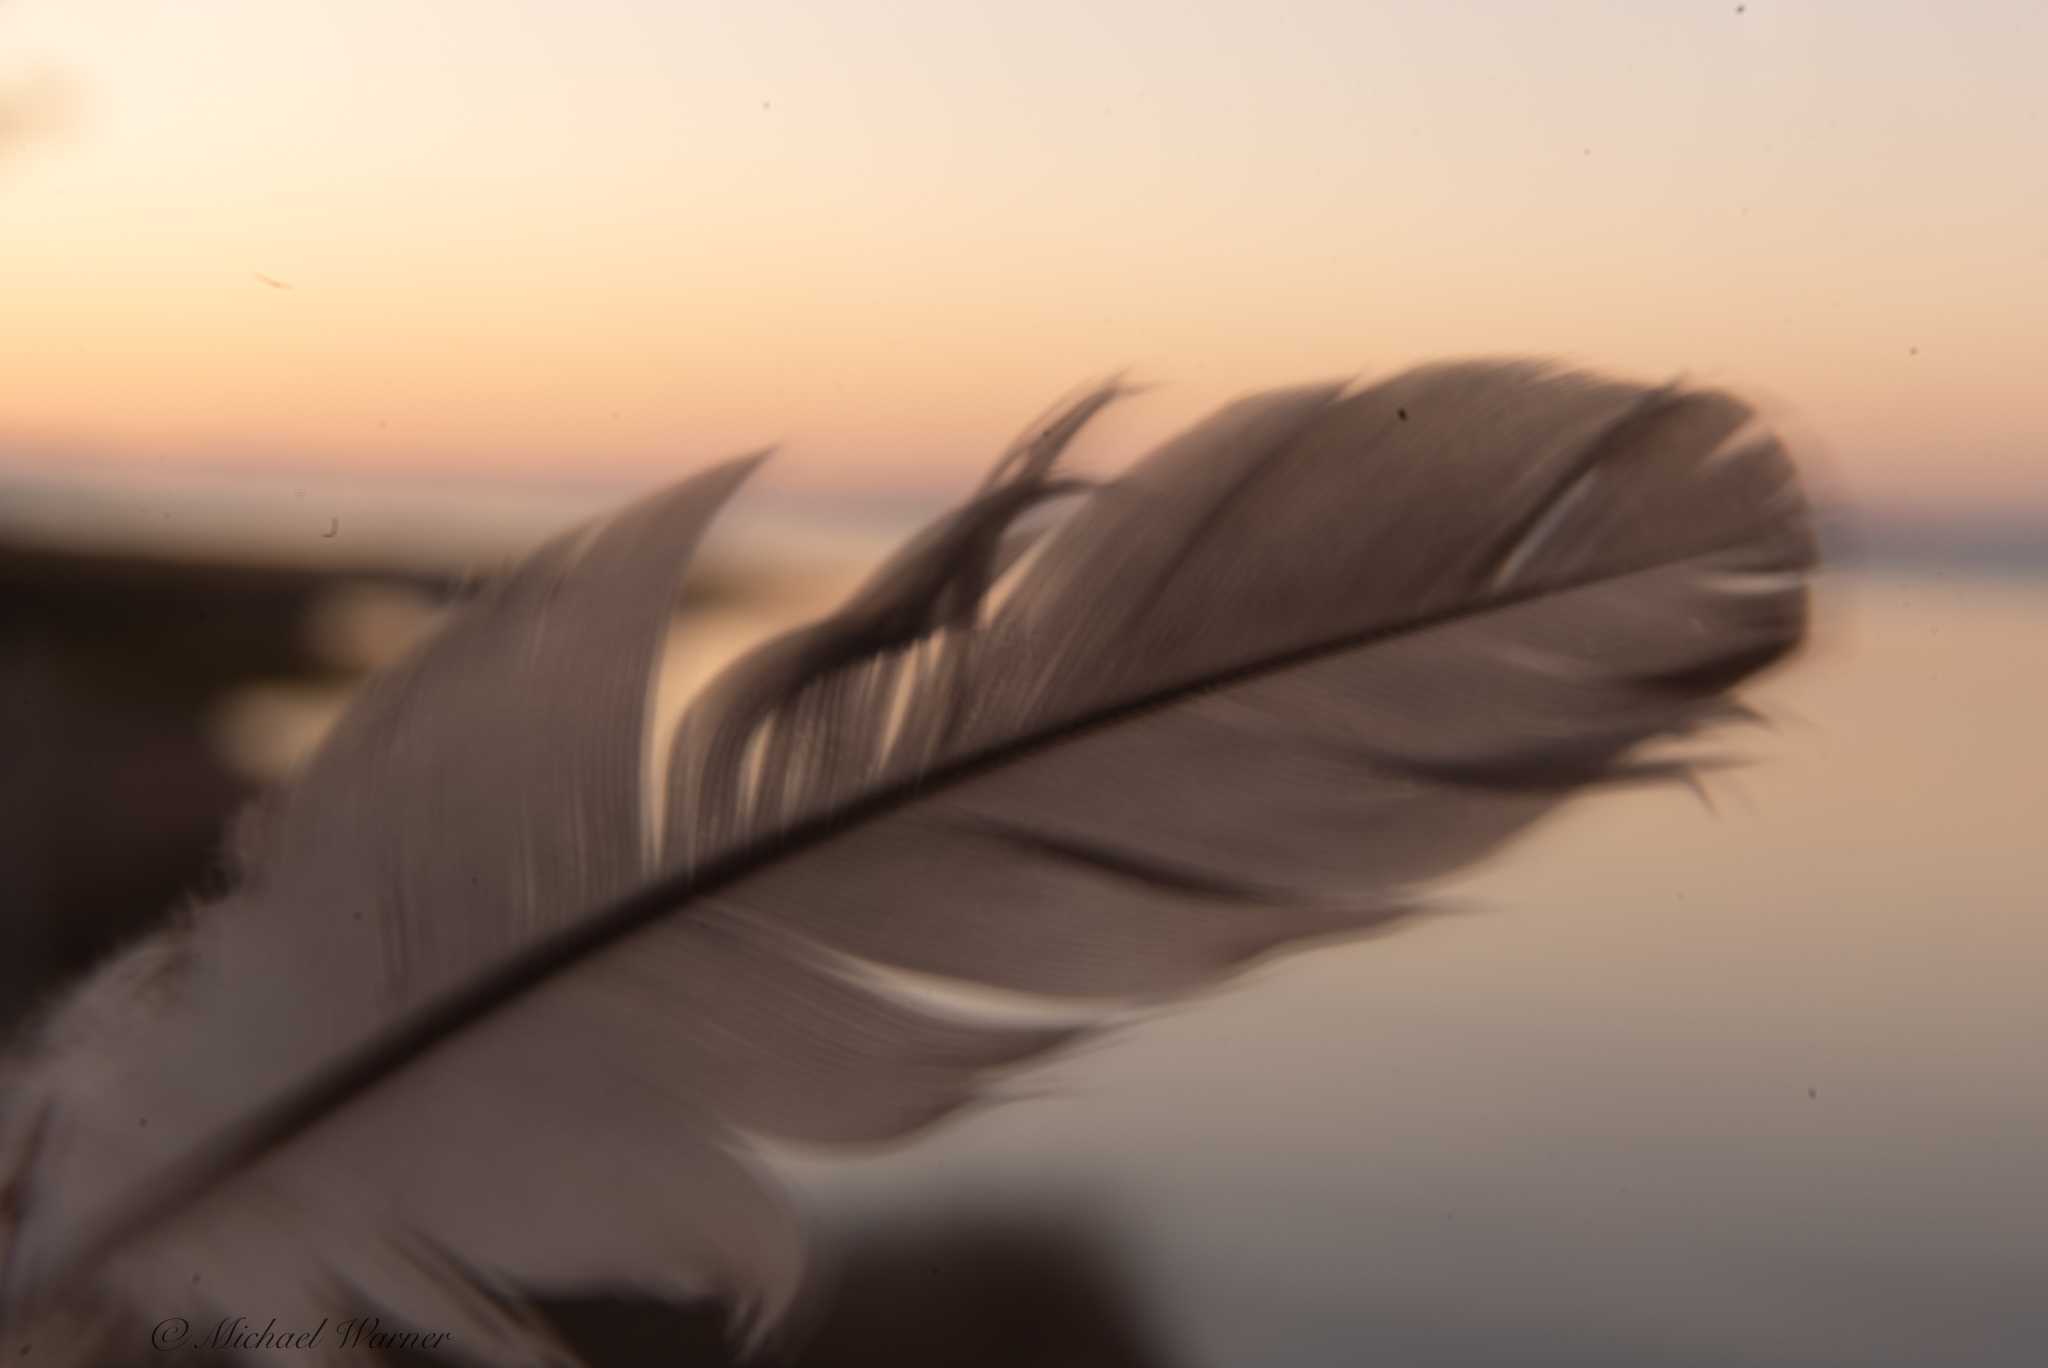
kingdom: Animalia
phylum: Chordata
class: Aves
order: Columbiformes
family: Columbidae
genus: Zenaida
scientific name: Zenaida macroura
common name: Mourning dove
